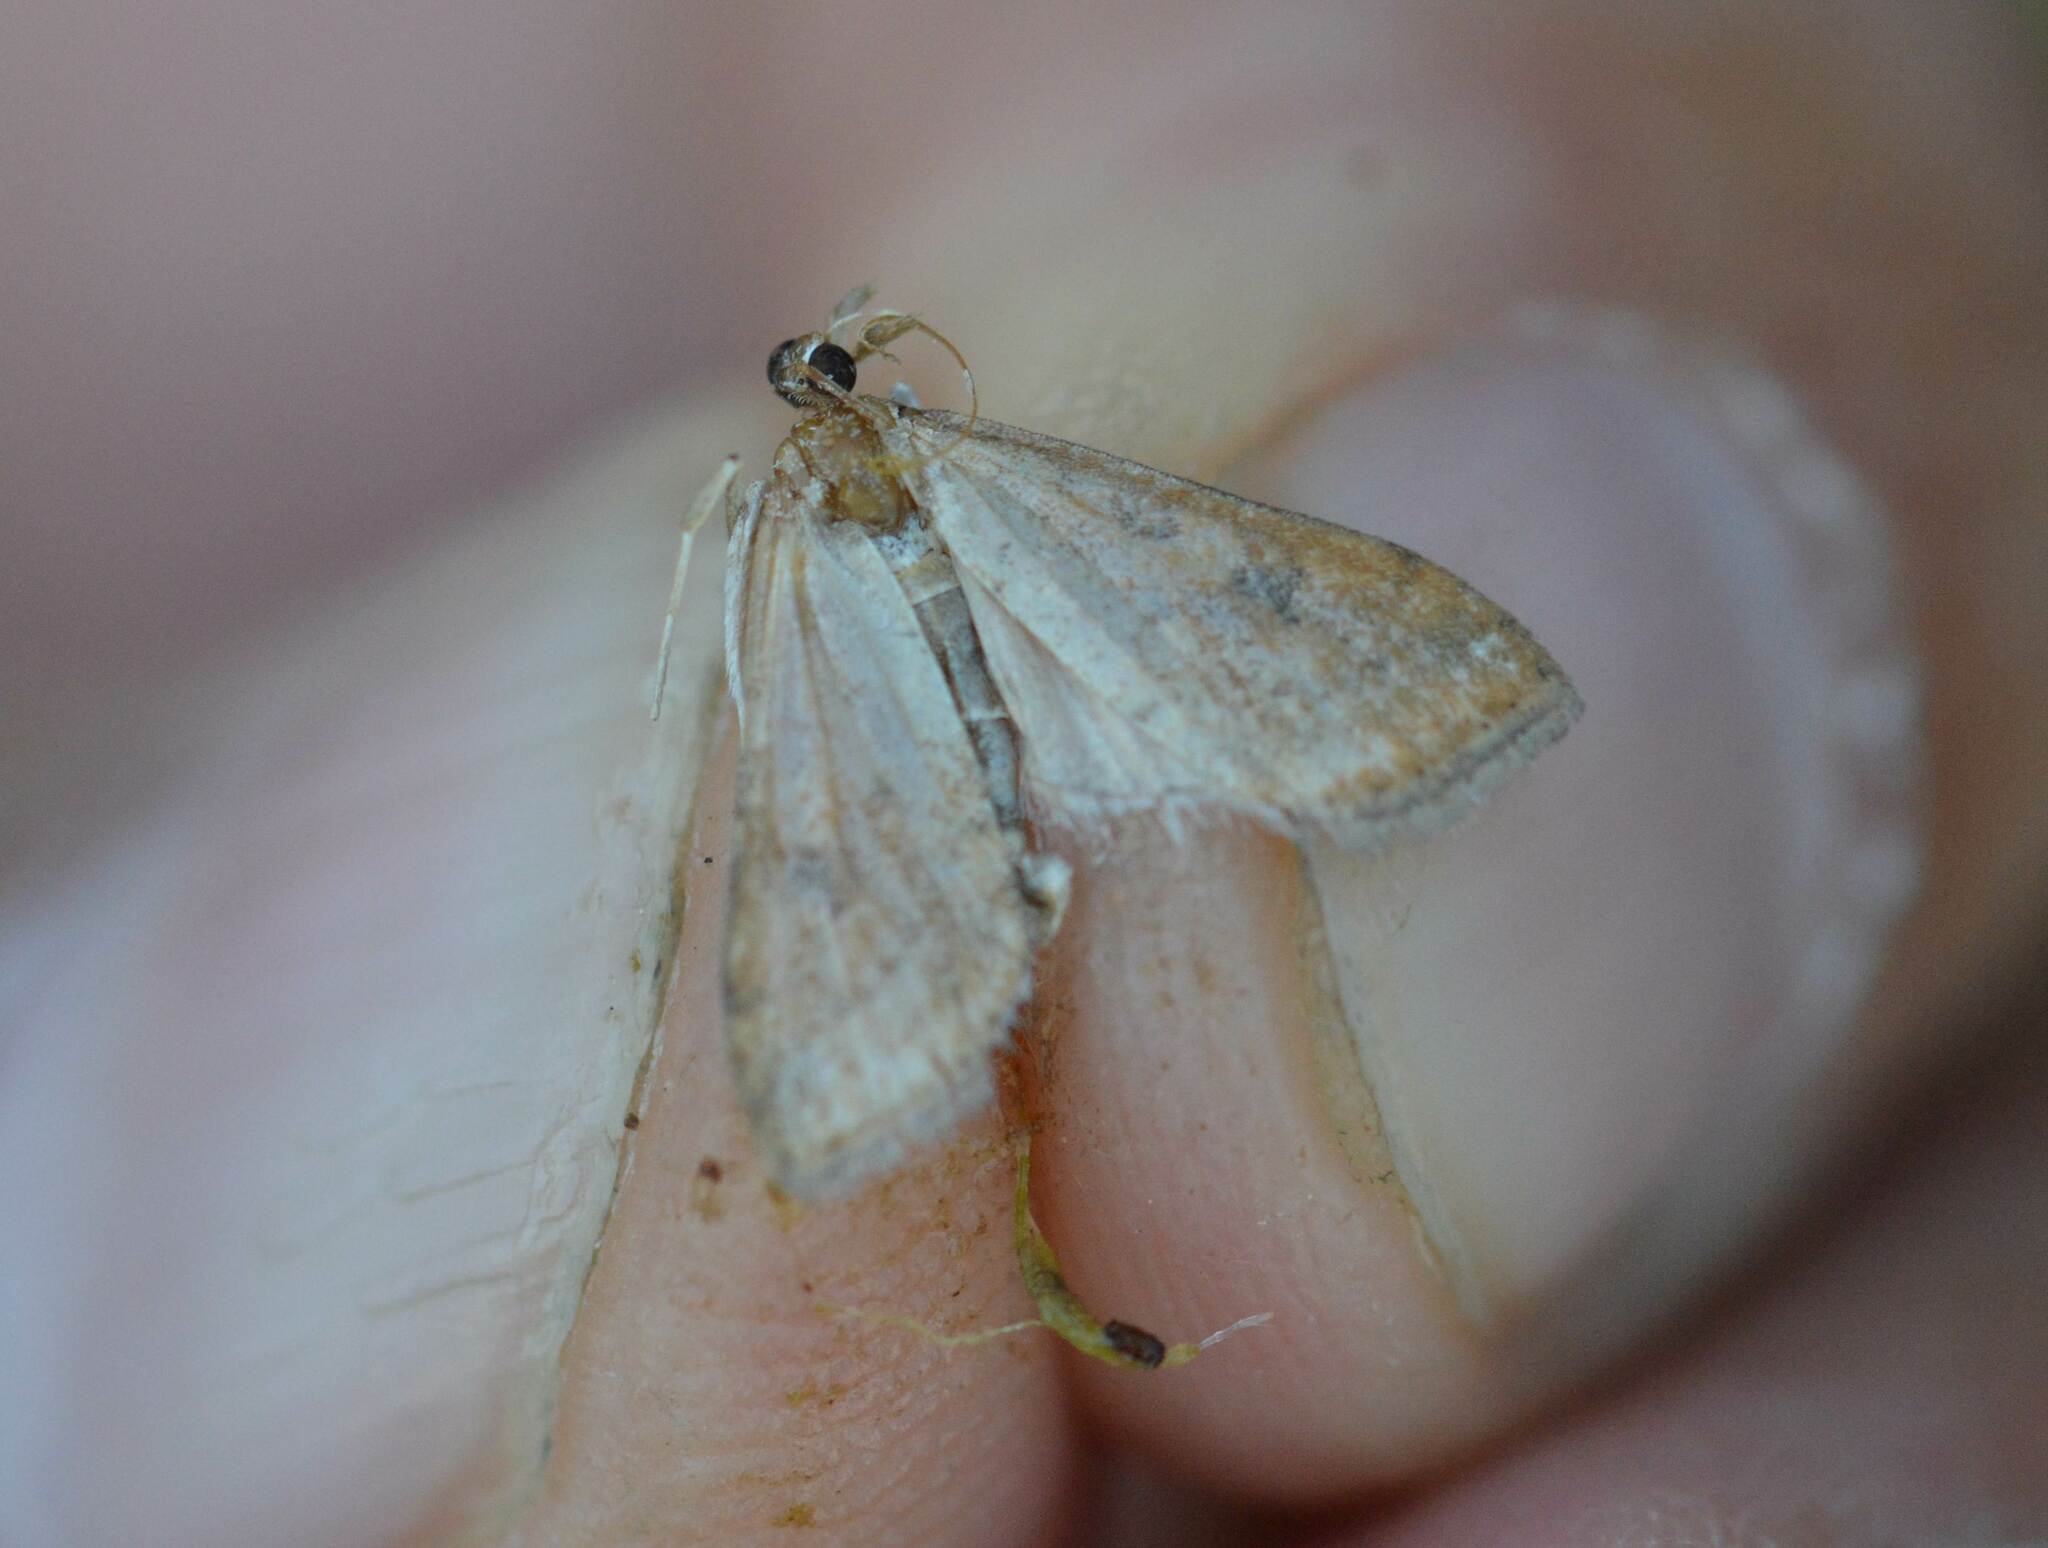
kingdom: Animalia
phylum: Arthropoda
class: Insecta
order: Lepidoptera
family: Crambidae
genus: Udea
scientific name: Udea ferrugalis
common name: Rusty dot
